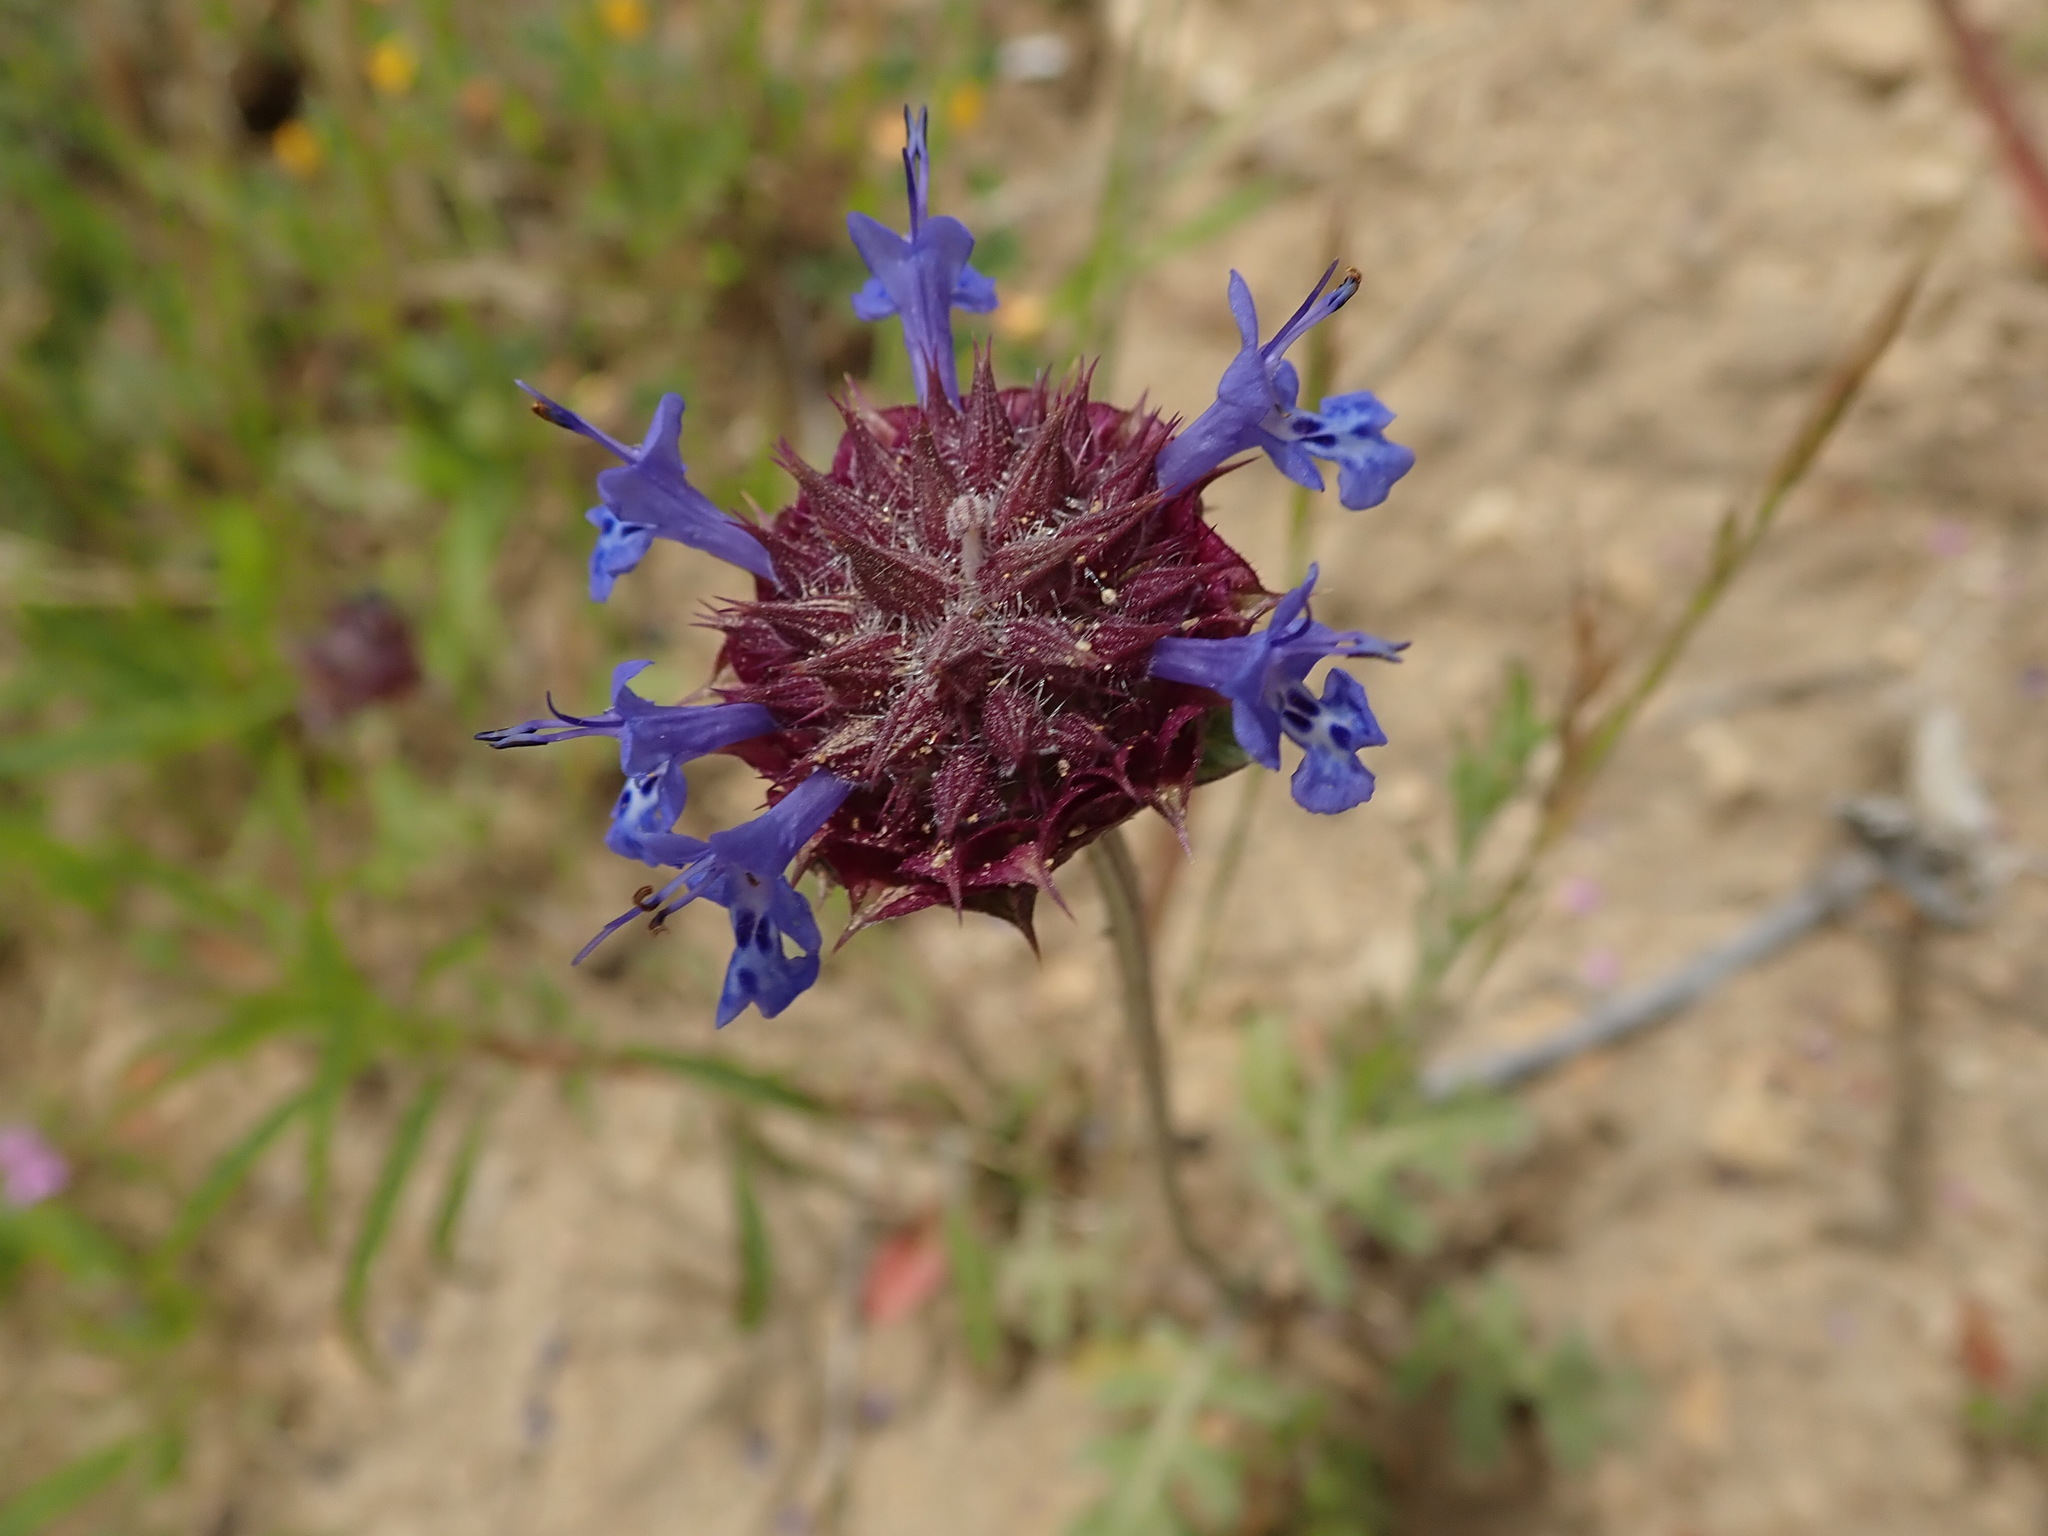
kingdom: Plantae
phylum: Tracheophyta
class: Magnoliopsida
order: Lamiales
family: Lamiaceae
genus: Salvia
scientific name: Salvia columbariae
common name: Chia
